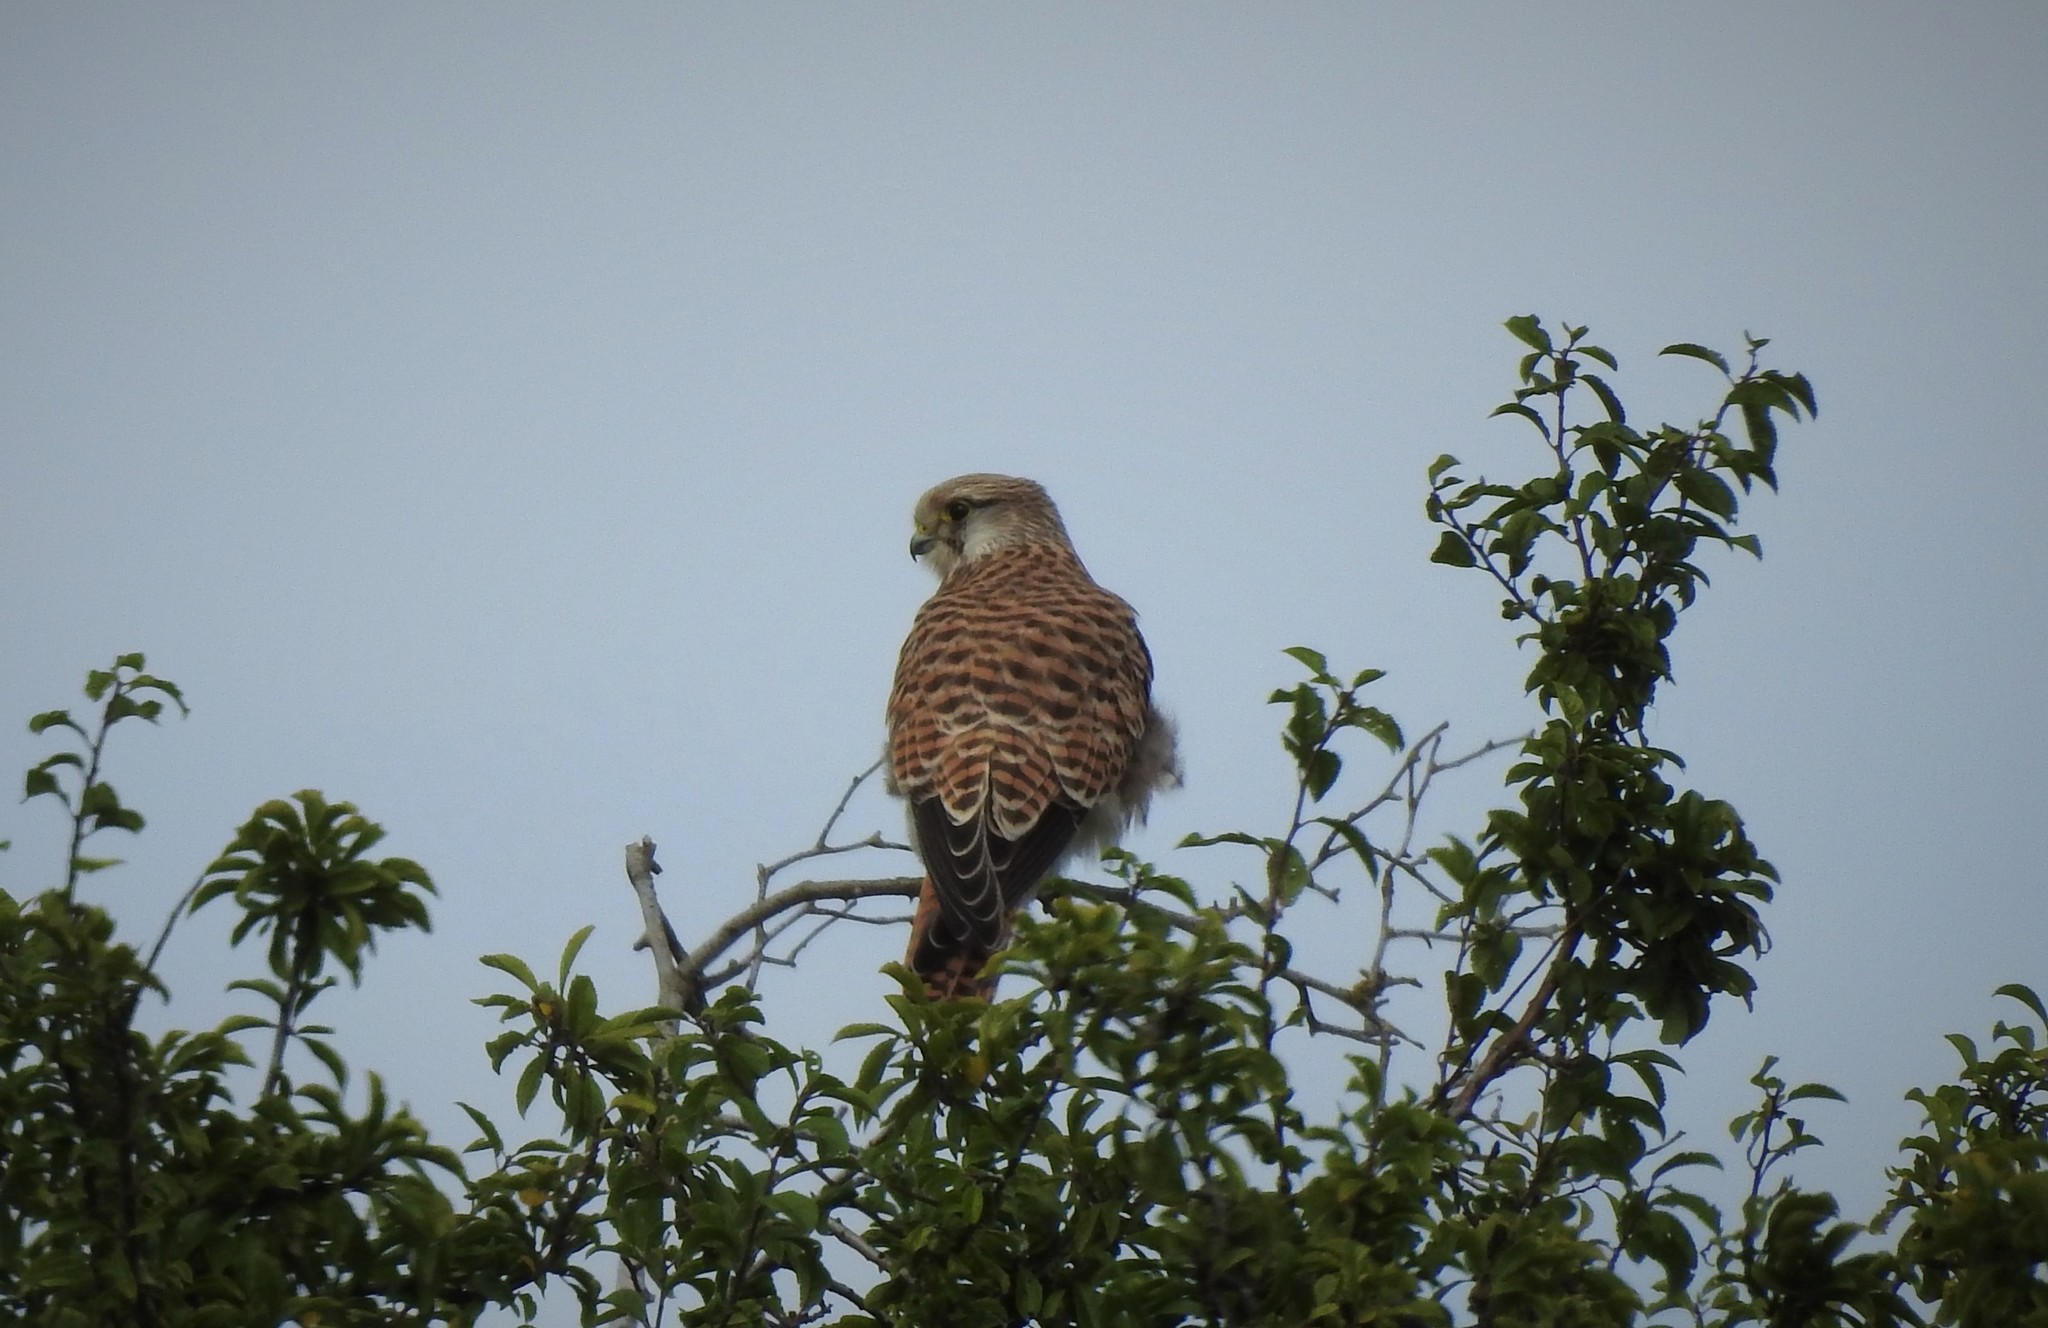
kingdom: Animalia
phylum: Chordata
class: Aves
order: Falconiformes
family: Falconidae
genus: Falco
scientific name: Falco tinnunculus
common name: Common kestrel
